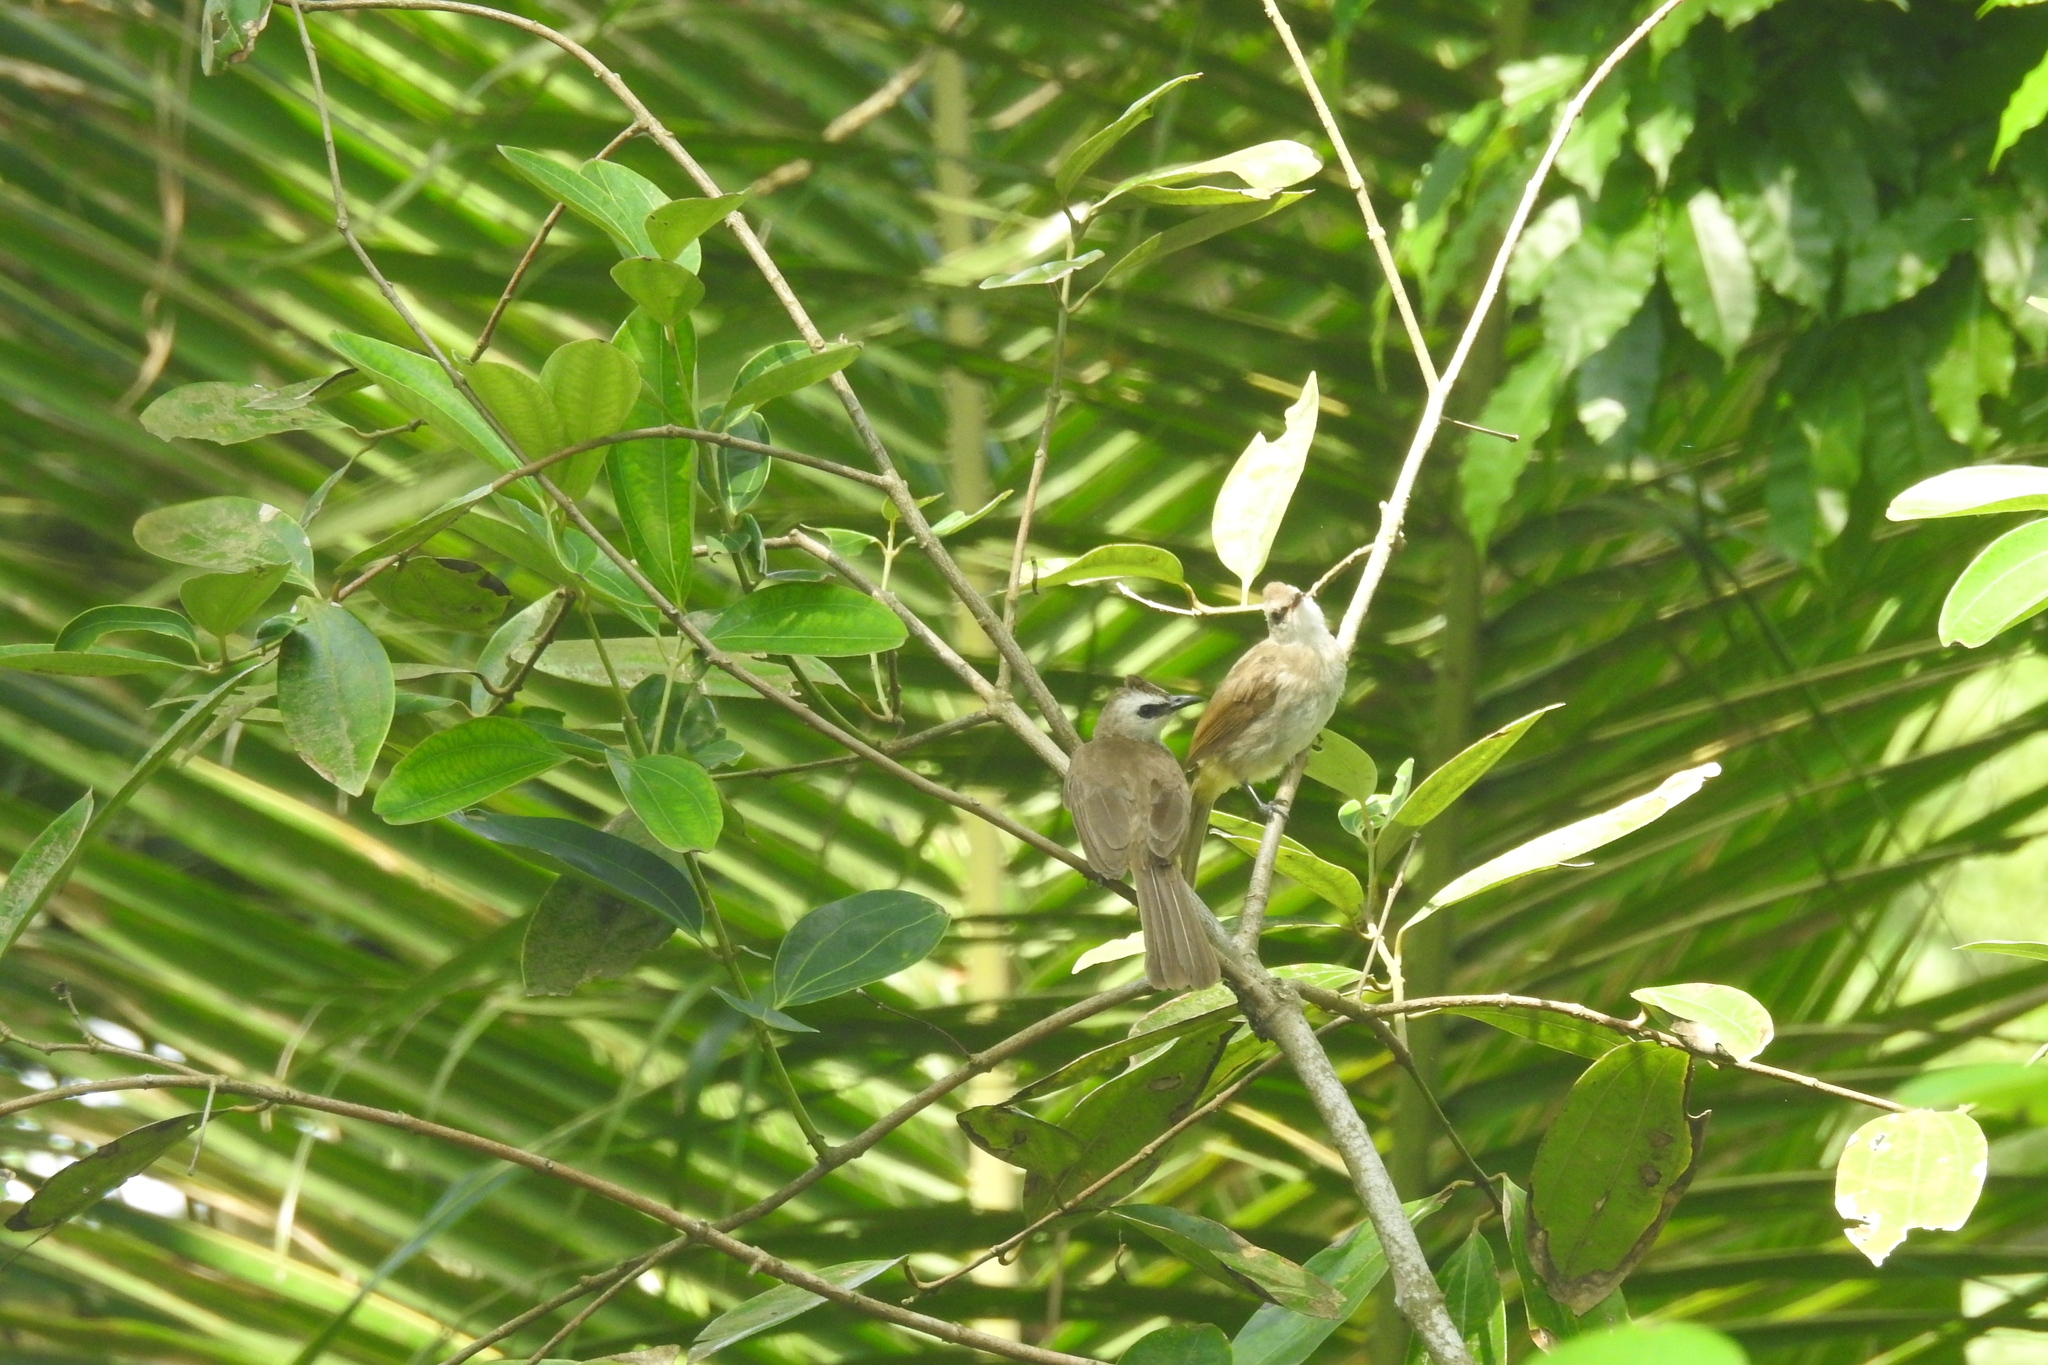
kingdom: Animalia
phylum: Chordata
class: Aves
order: Passeriformes
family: Pycnonotidae
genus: Pycnonotus
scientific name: Pycnonotus goiavier
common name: Yellow-vented bulbul
